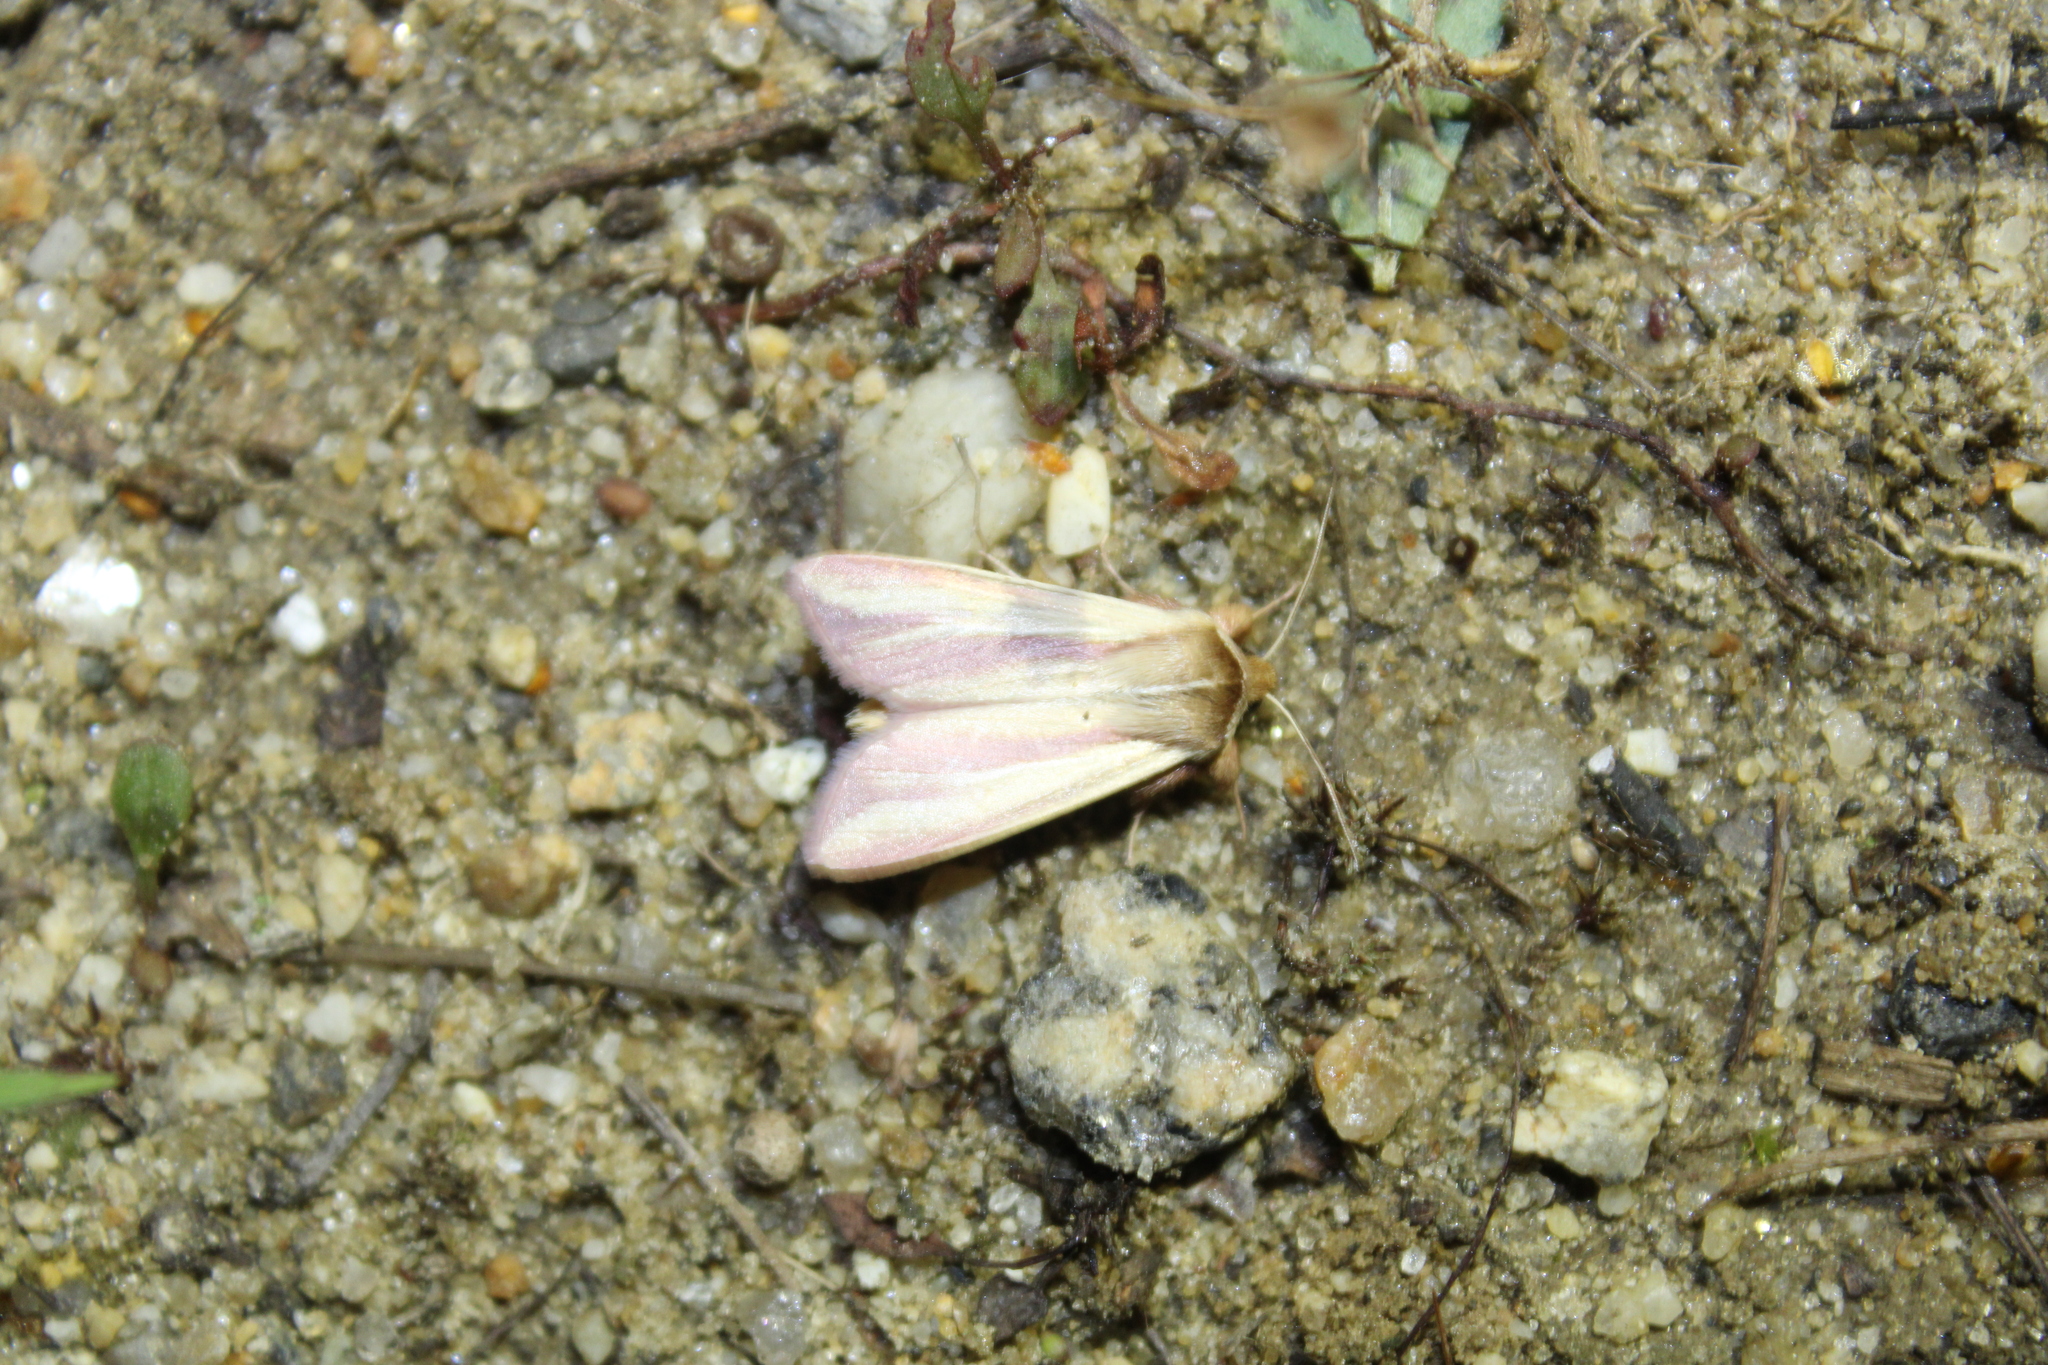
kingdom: Animalia
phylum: Arthropoda
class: Insecta
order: Lepidoptera
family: Noctuidae
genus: Dargida
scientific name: Dargida rubripennis
